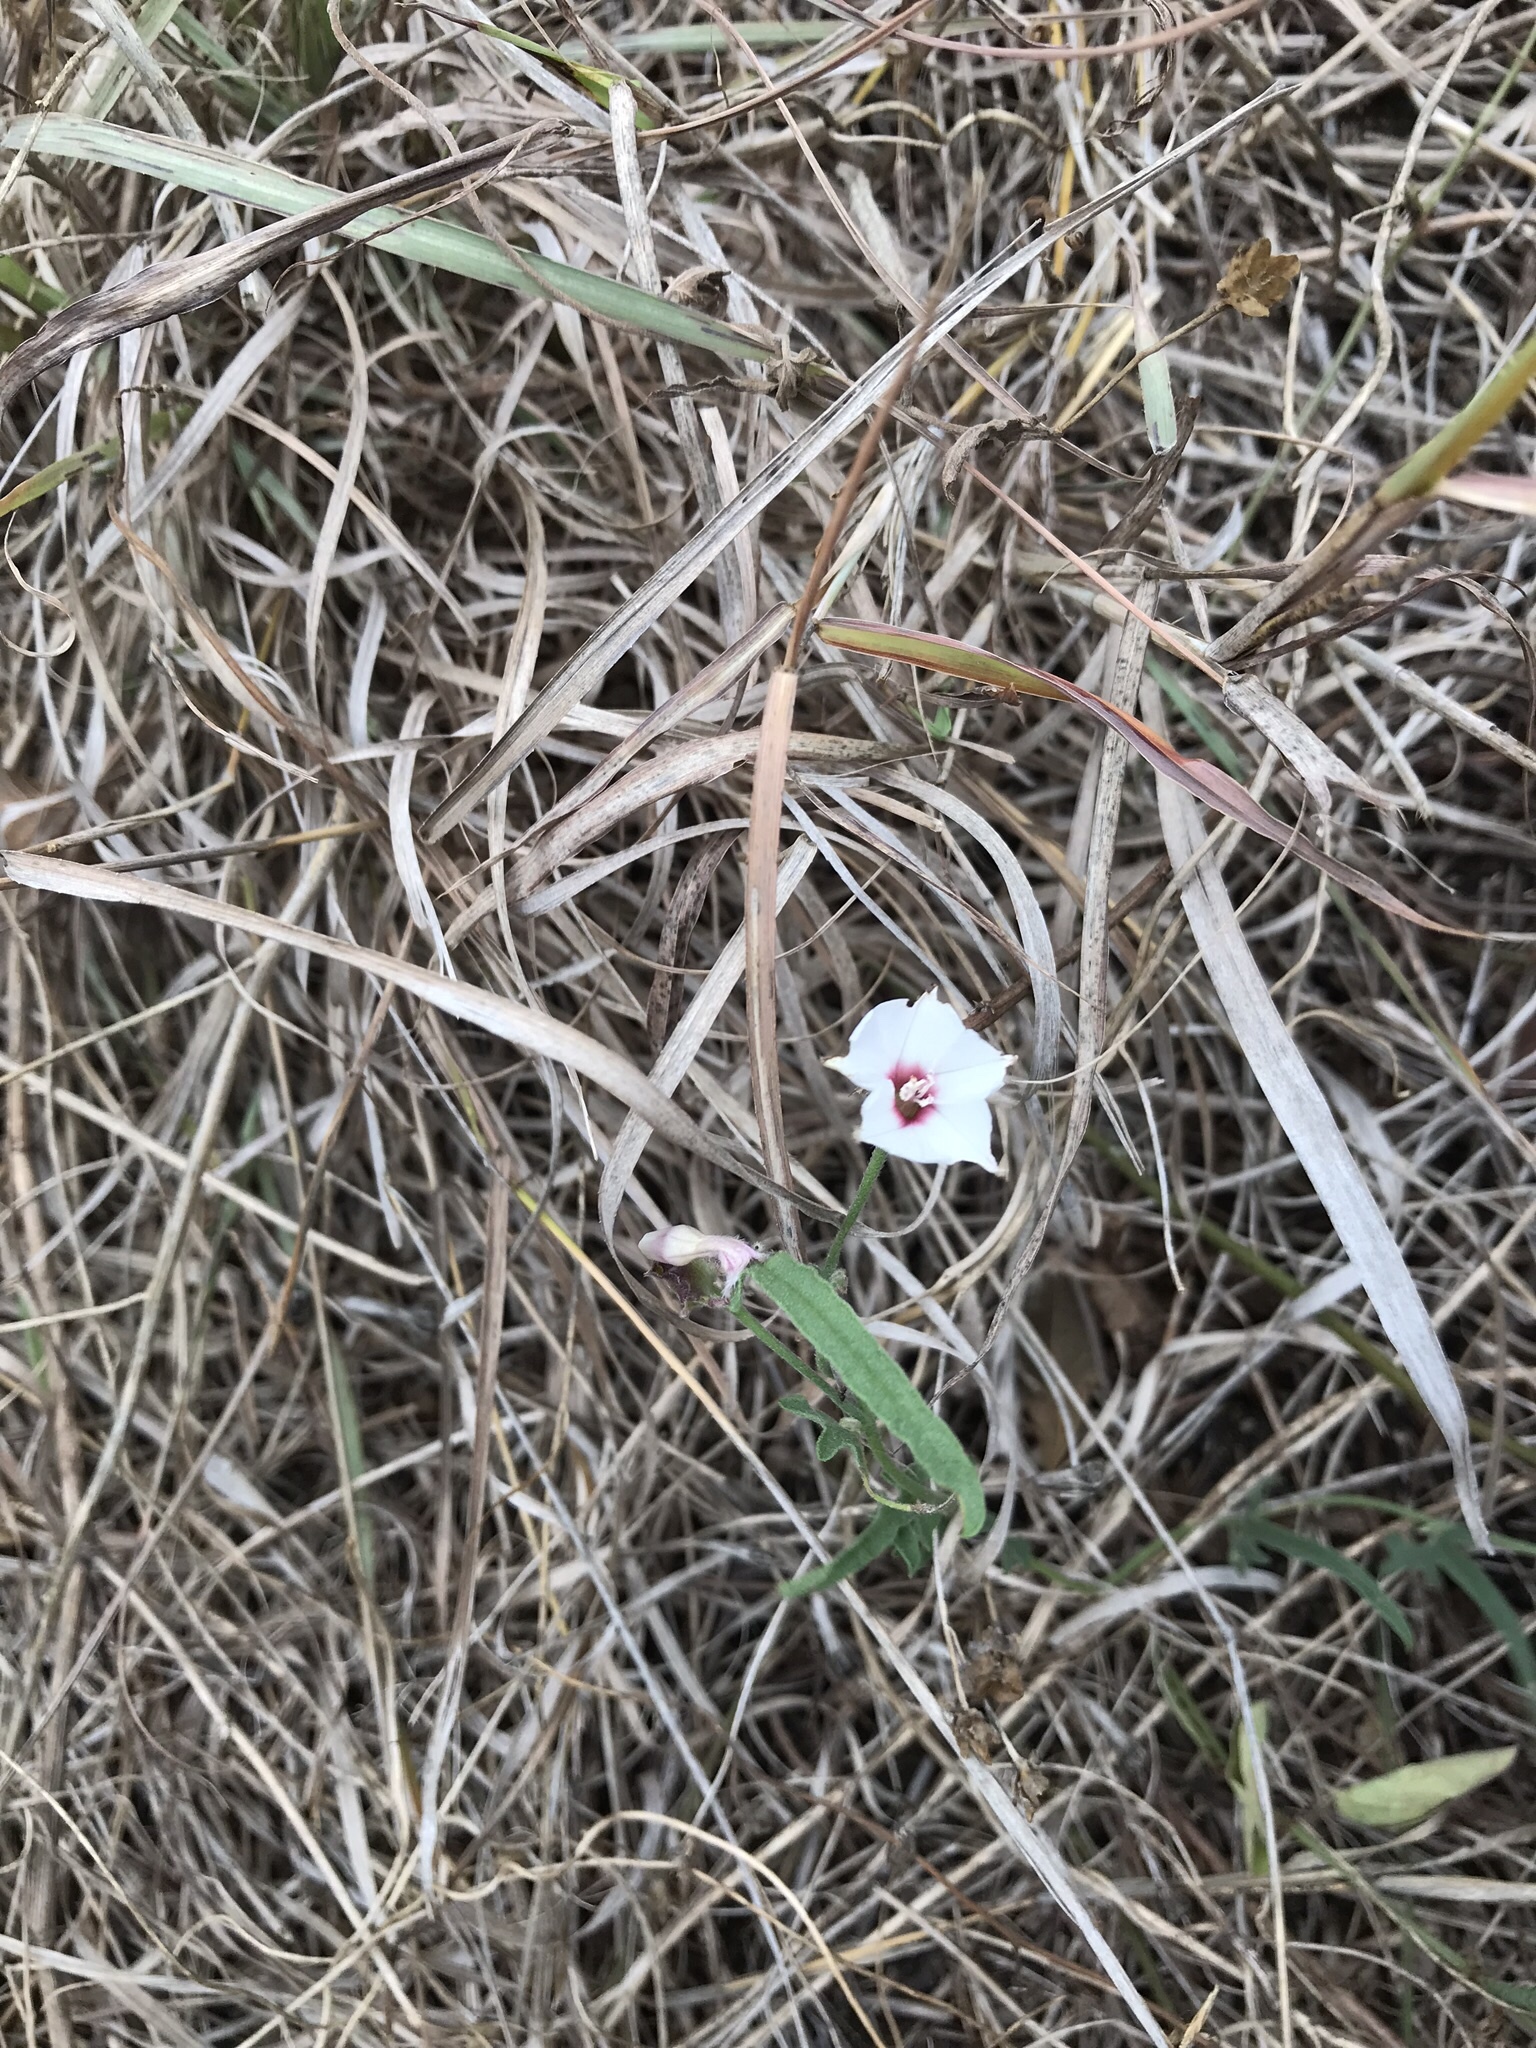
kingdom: Plantae
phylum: Tracheophyta
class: Magnoliopsida
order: Solanales
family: Convolvulaceae
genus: Convolvulus
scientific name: Convolvulus equitans
